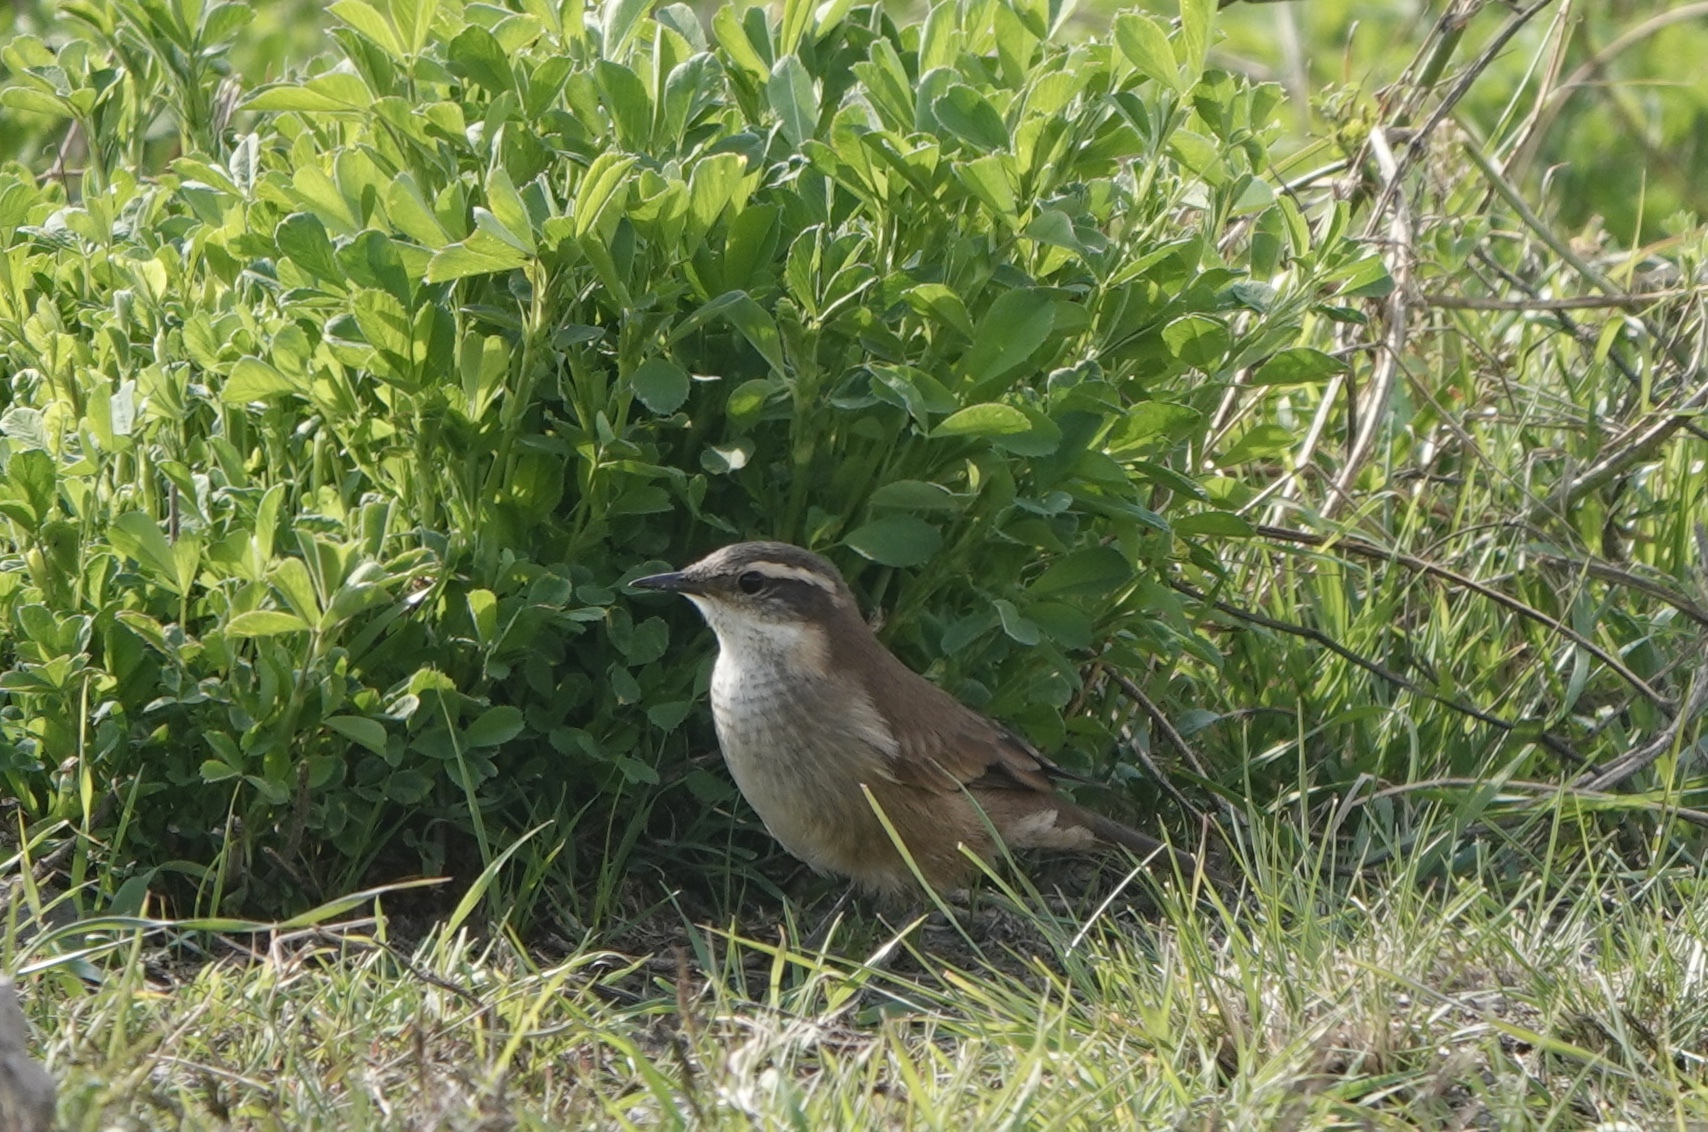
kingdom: Animalia
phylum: Chordata
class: Aves
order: Passeriformes
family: Furnariidae
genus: Cinclodes
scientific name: Cinclodes fuscus
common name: Buff-winged cinclodes
